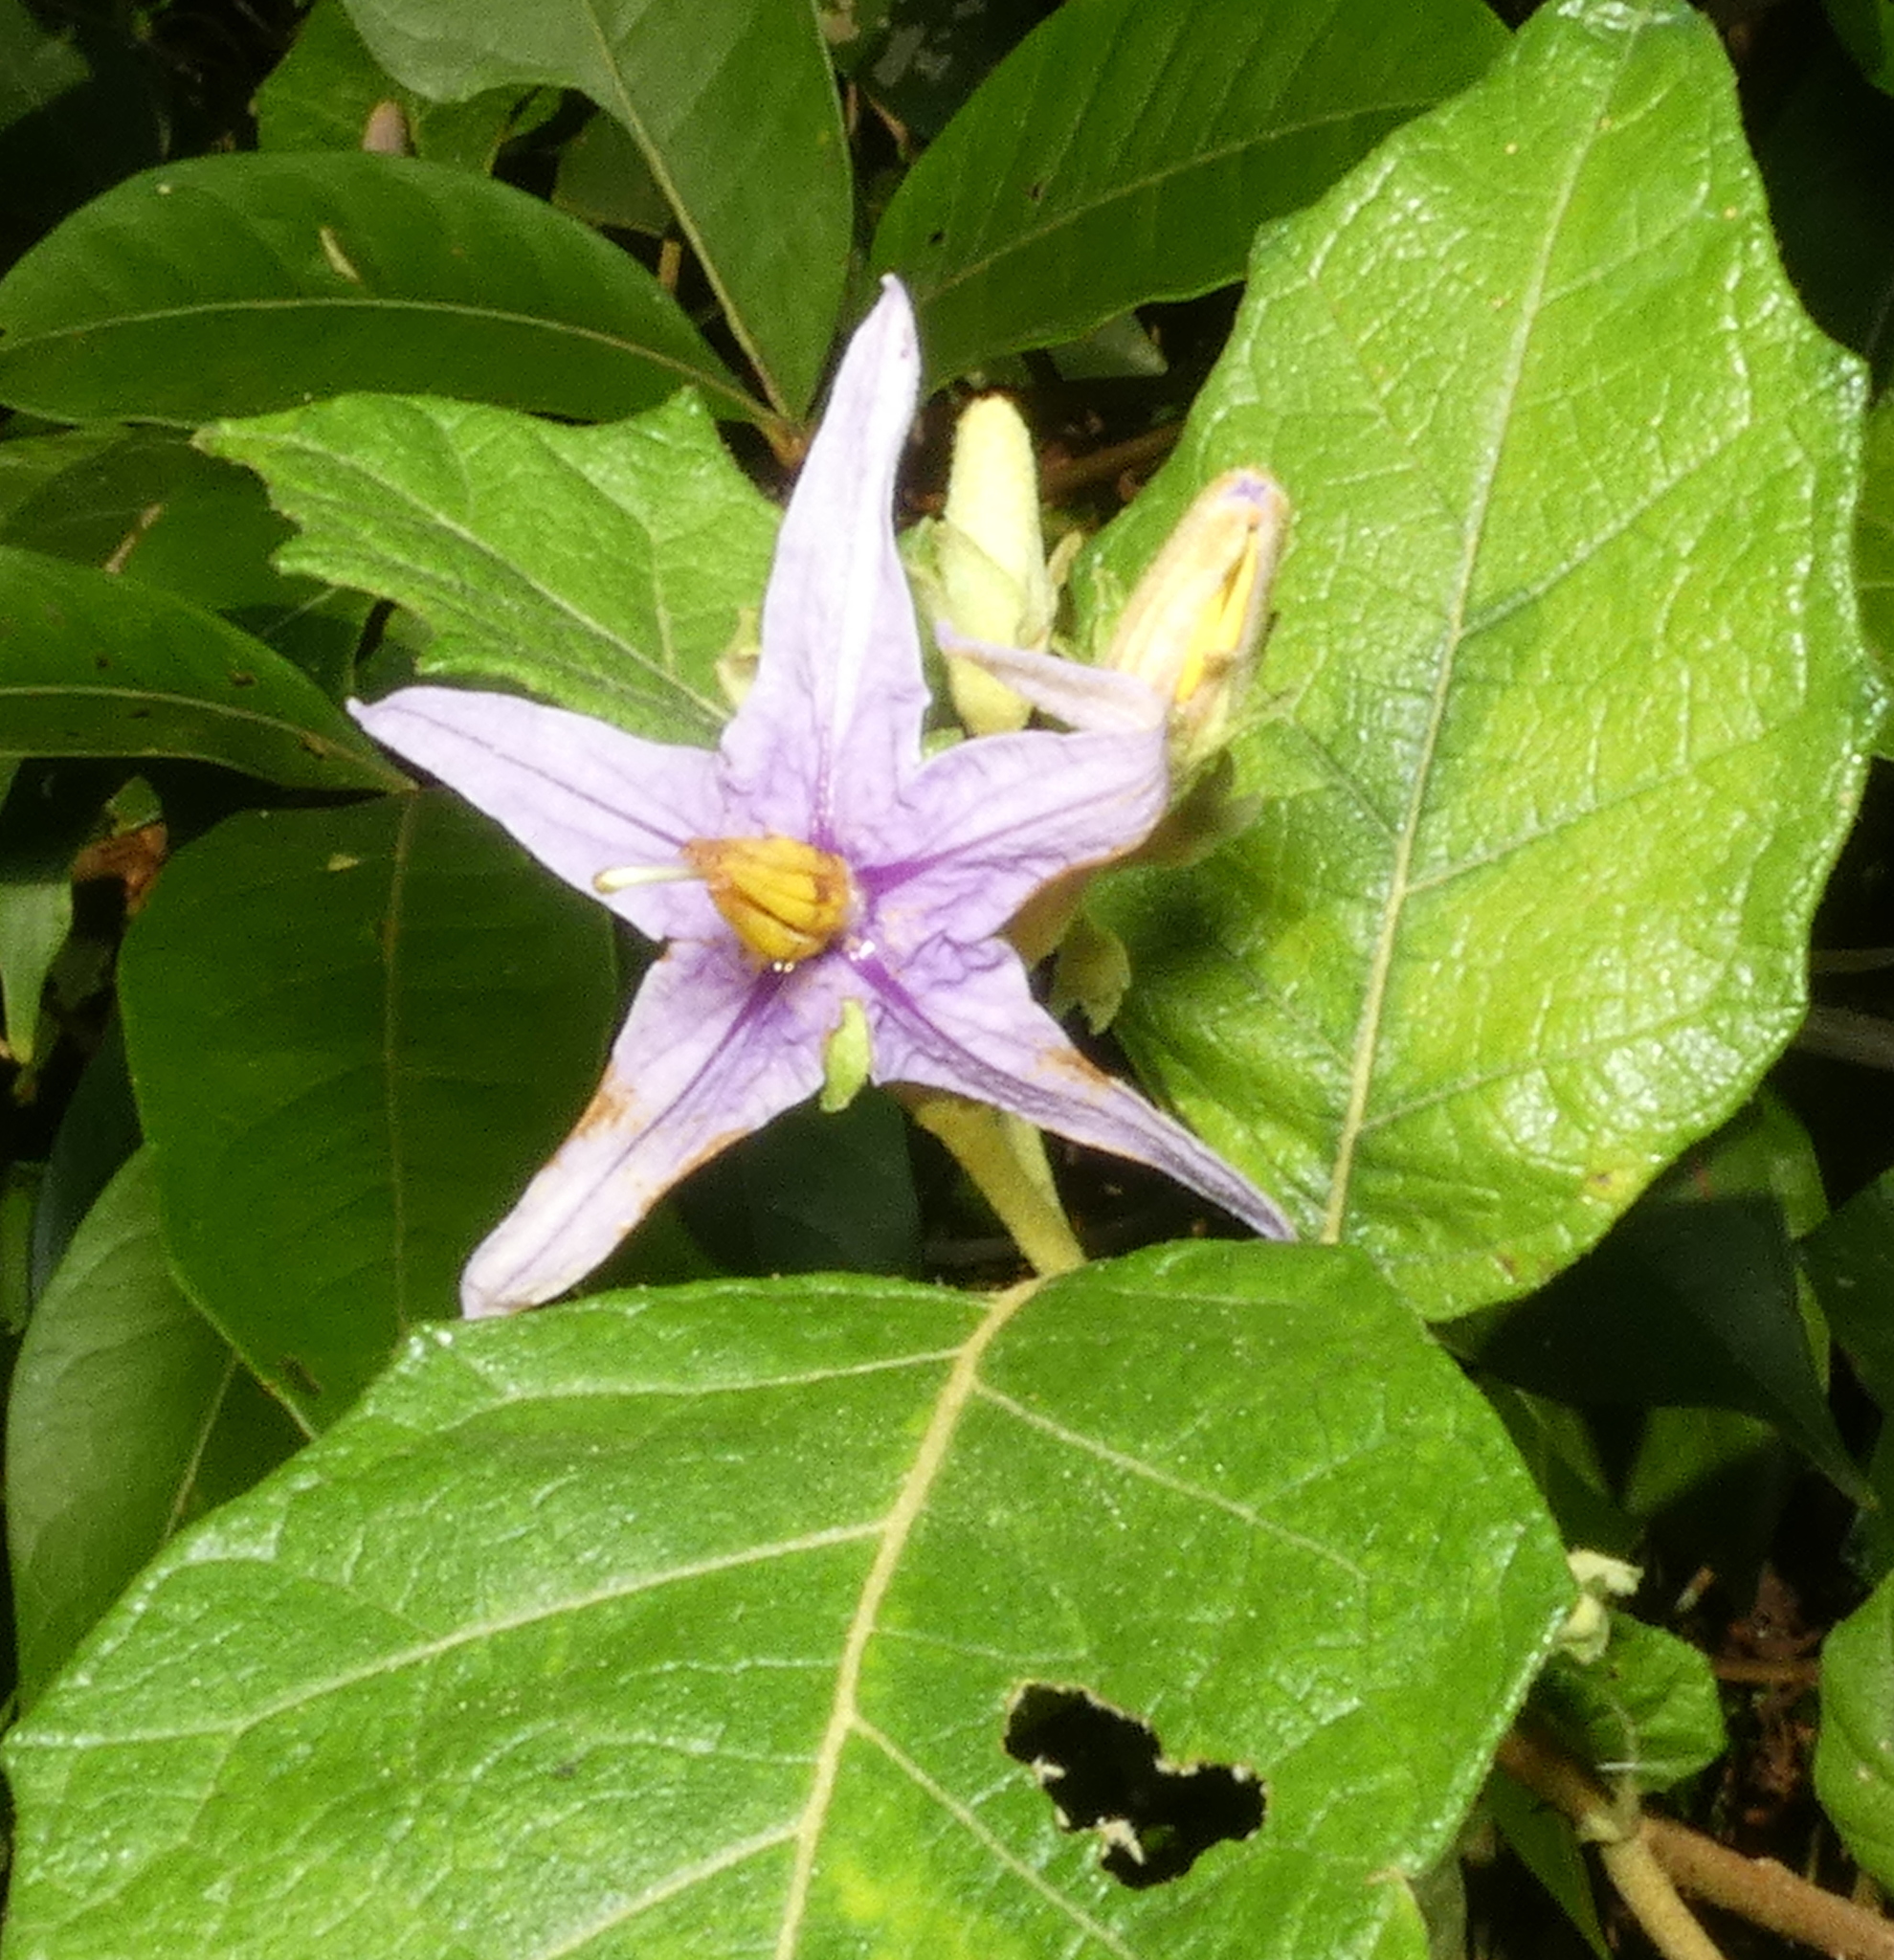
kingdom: Plantae
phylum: Tracheophyta
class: Magnoliopsida
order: Solanales
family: Solanaceae
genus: Solanum
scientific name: Solanum paludosum
